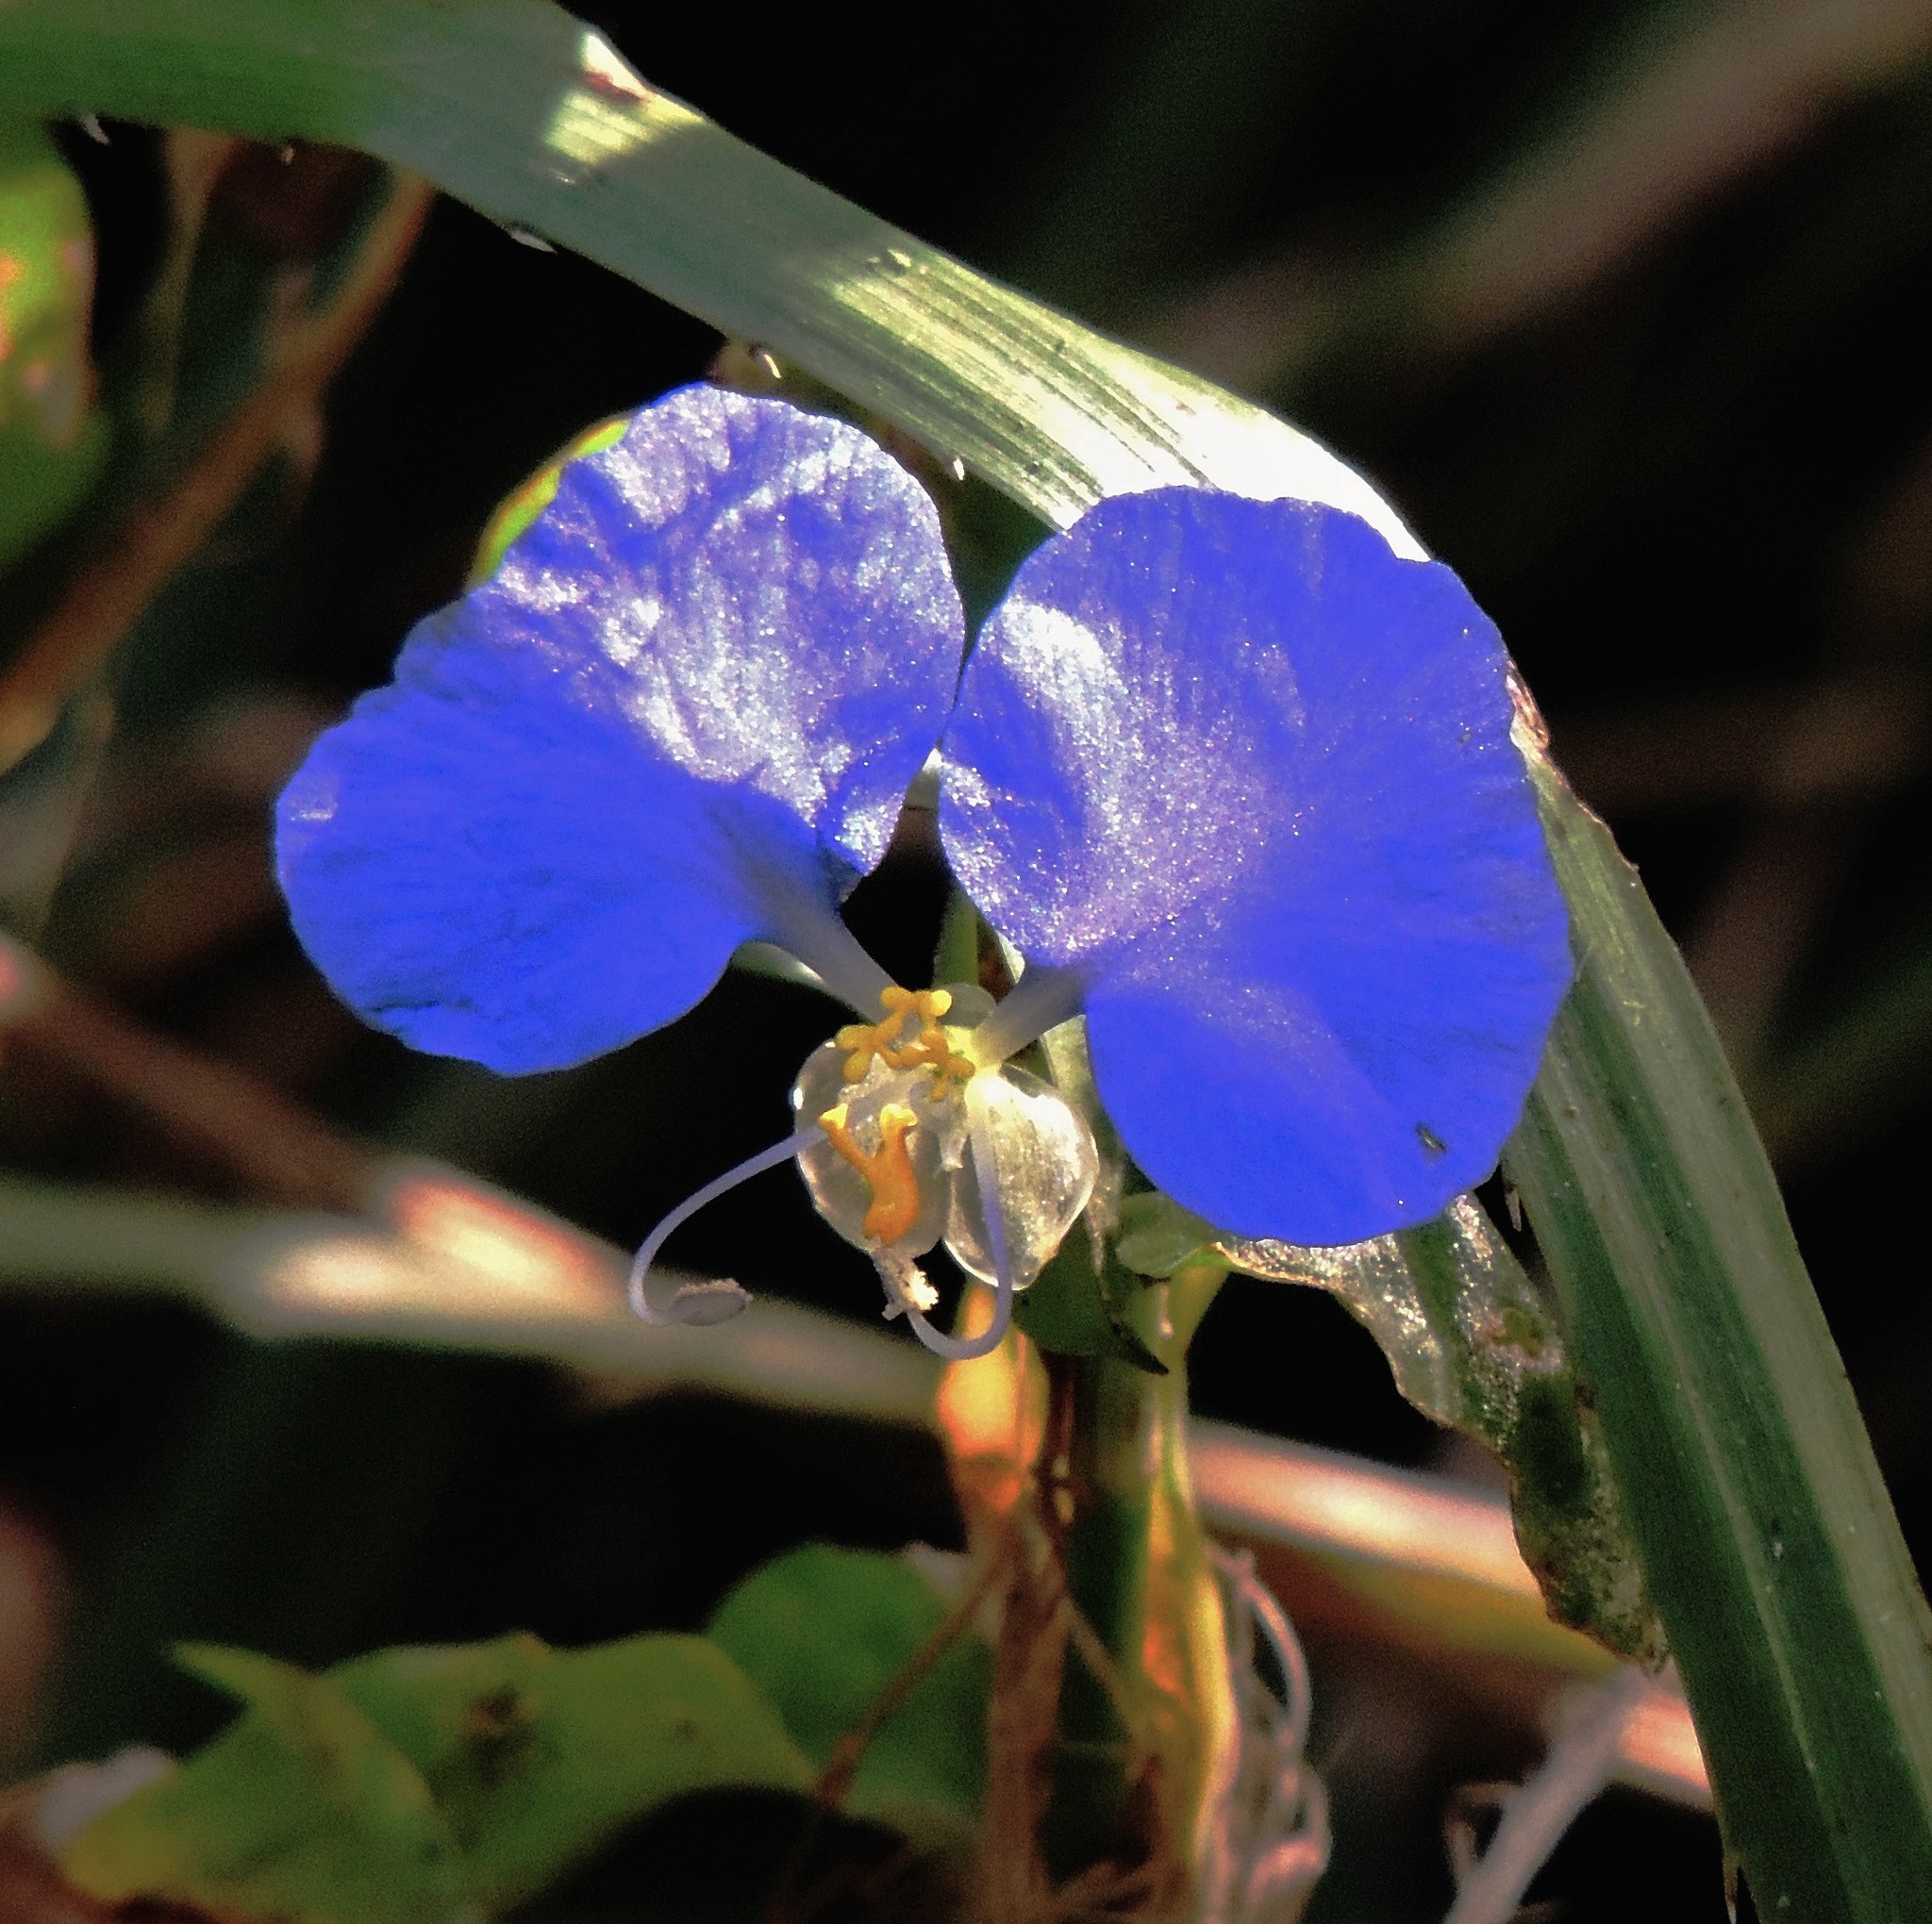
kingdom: Plantae
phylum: Tracheophyta
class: Liliopsida
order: Commelinales
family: Commelinaceae
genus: Commelina
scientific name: Commelina erecta
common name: Blousel blommetjie
